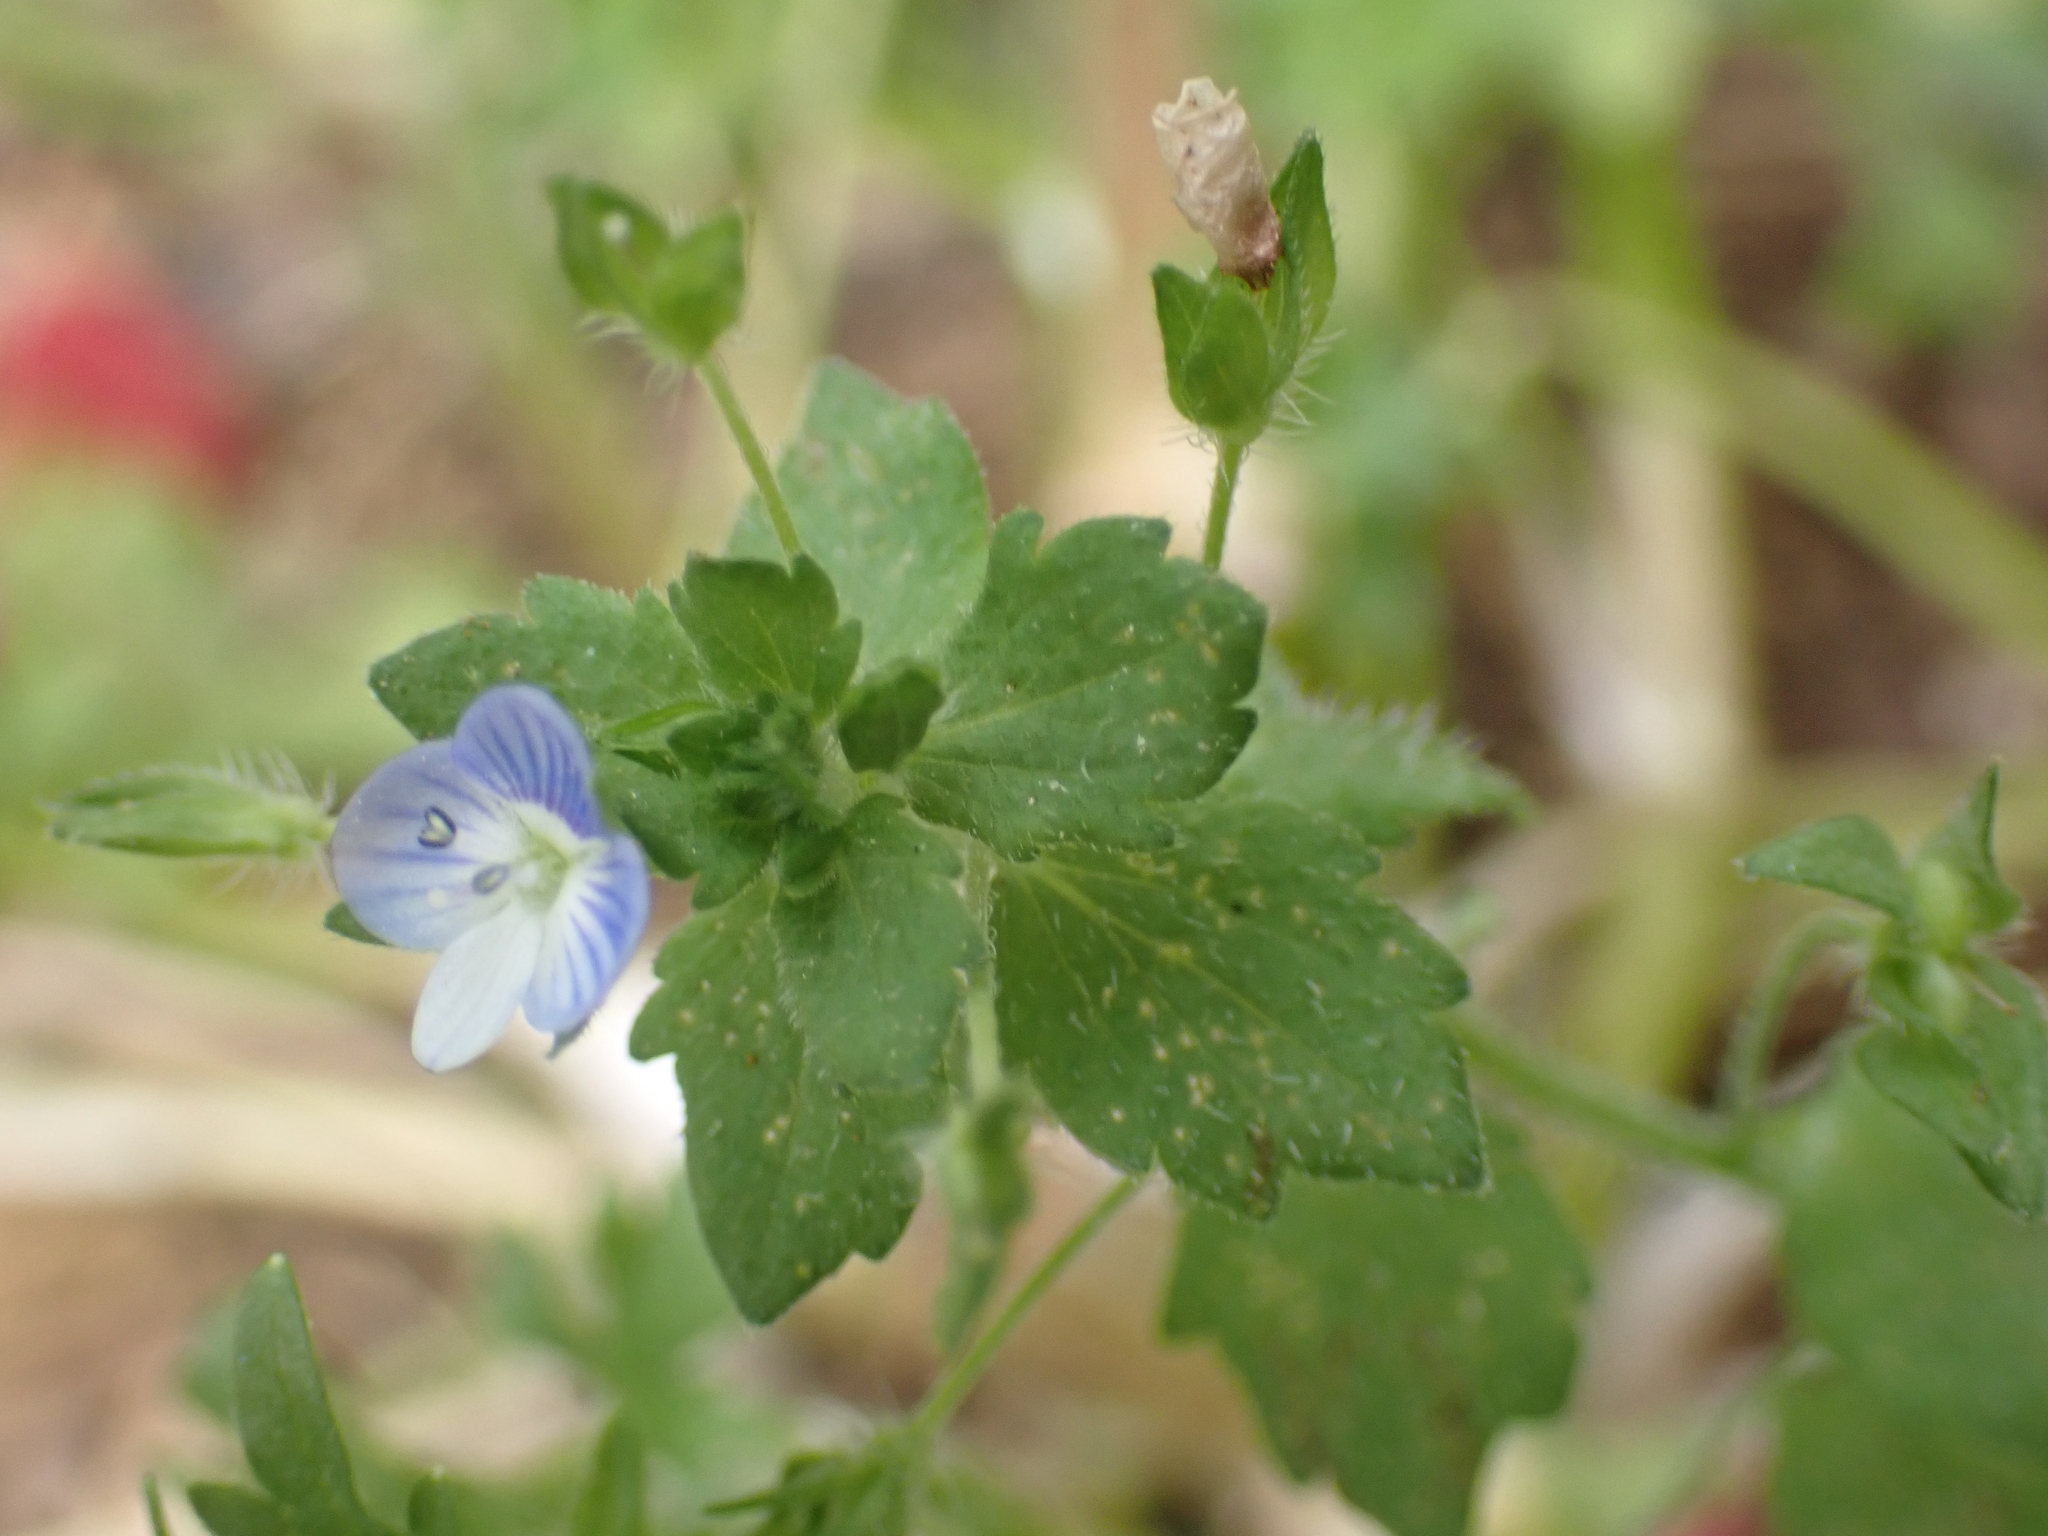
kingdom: Plantae
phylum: Tracheophyta
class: Magnoliopsida
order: Lamiales
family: Plantaginaceae
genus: Veronica
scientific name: Veronica persica
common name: Common field-speedwell
